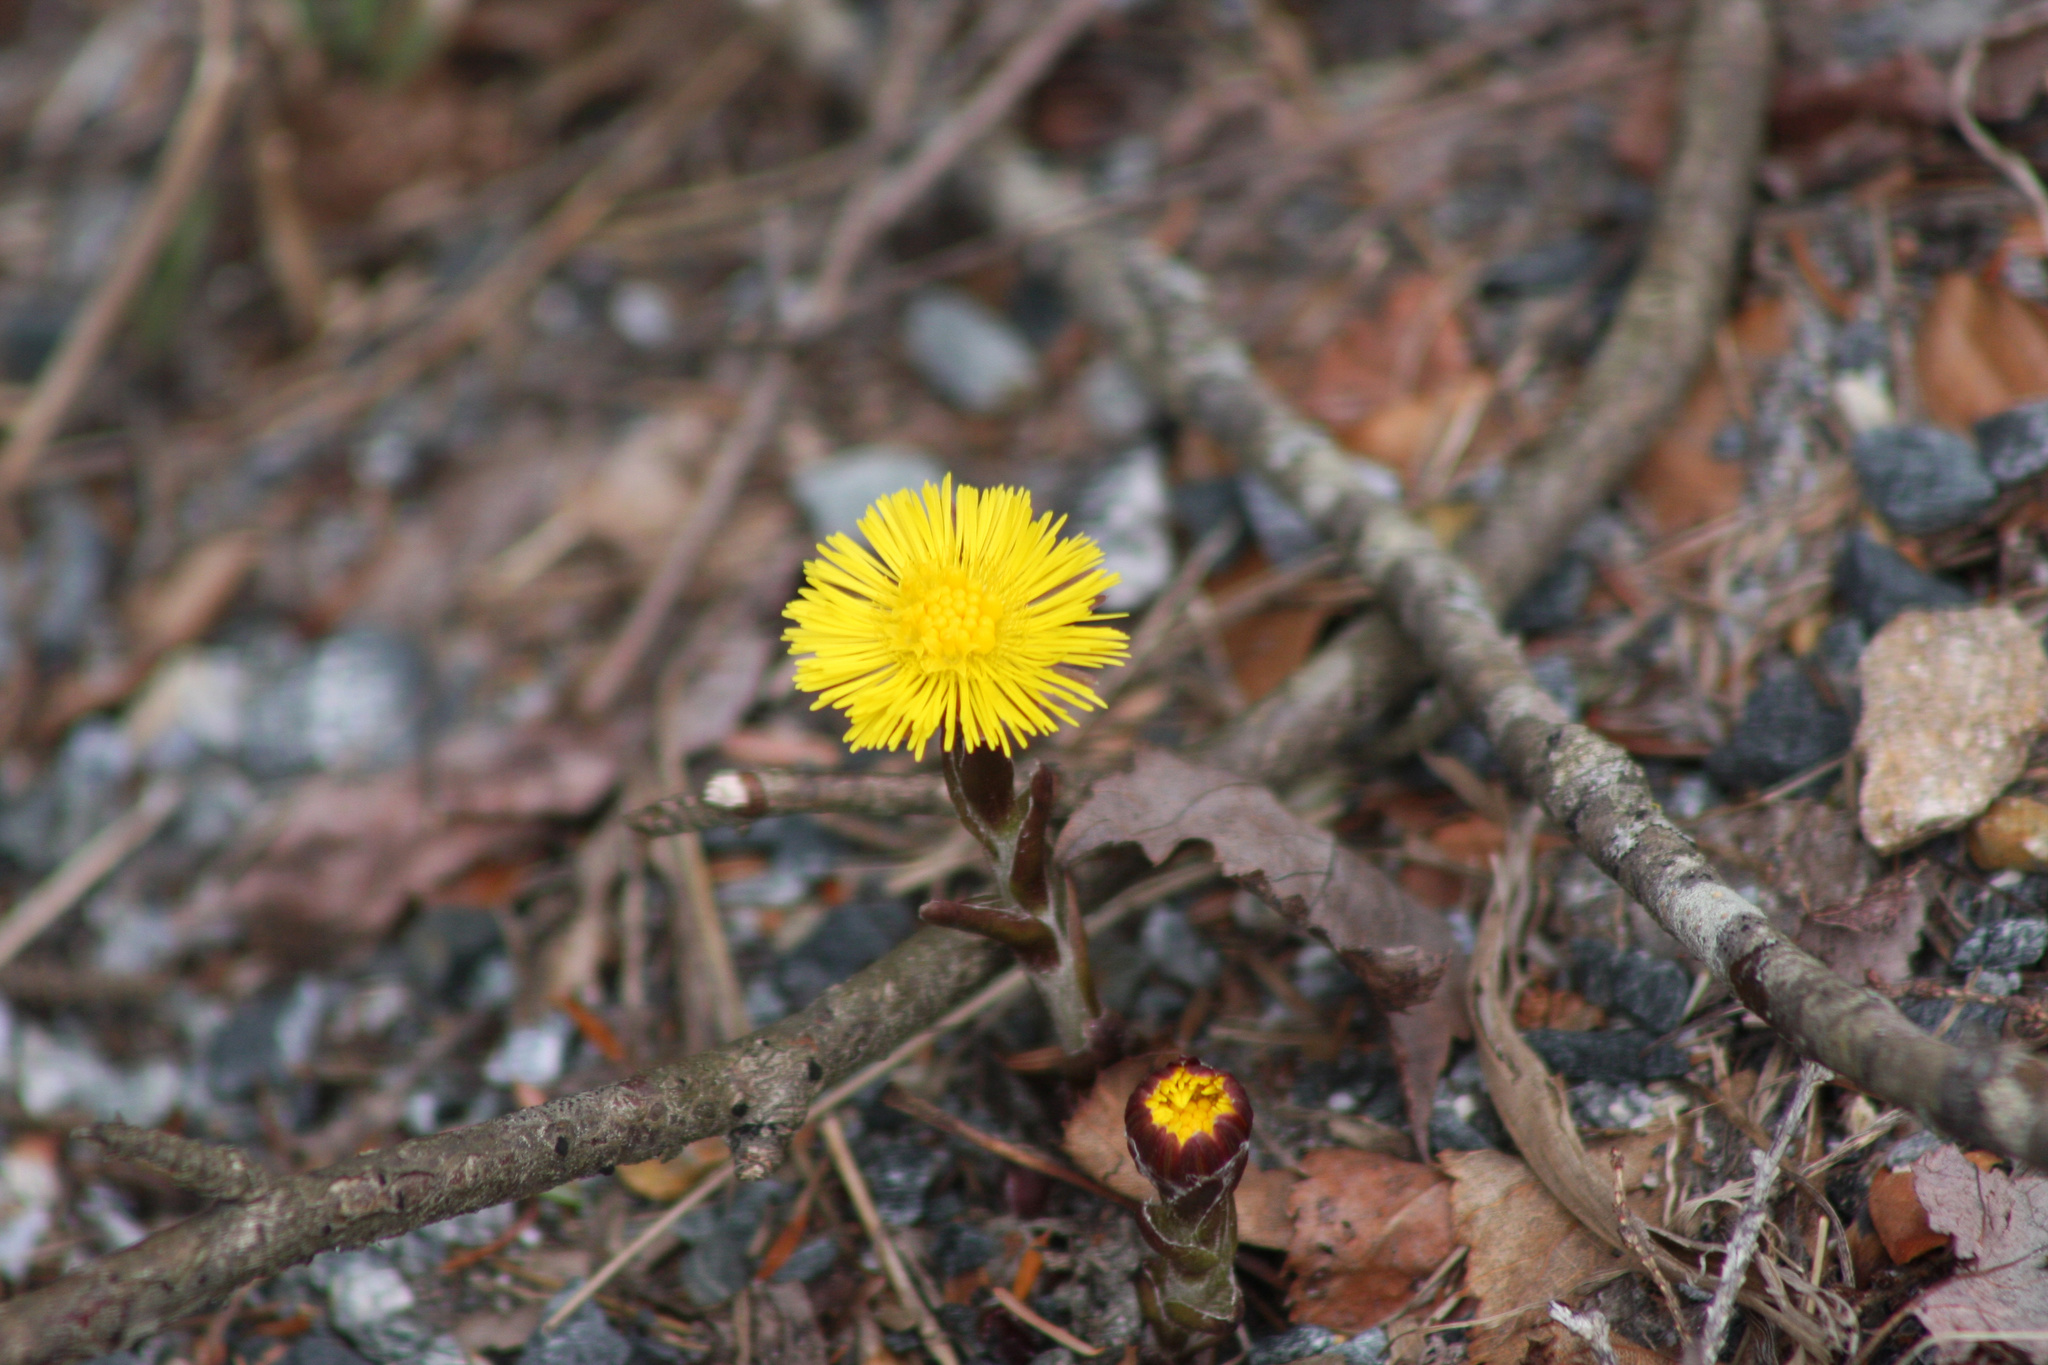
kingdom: Plantae
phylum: Tracheophyta
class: Magnoliopsida
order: Asterales
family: Asteraceae
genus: Tussilago
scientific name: Tussilago farfara
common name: Coltsfoot
